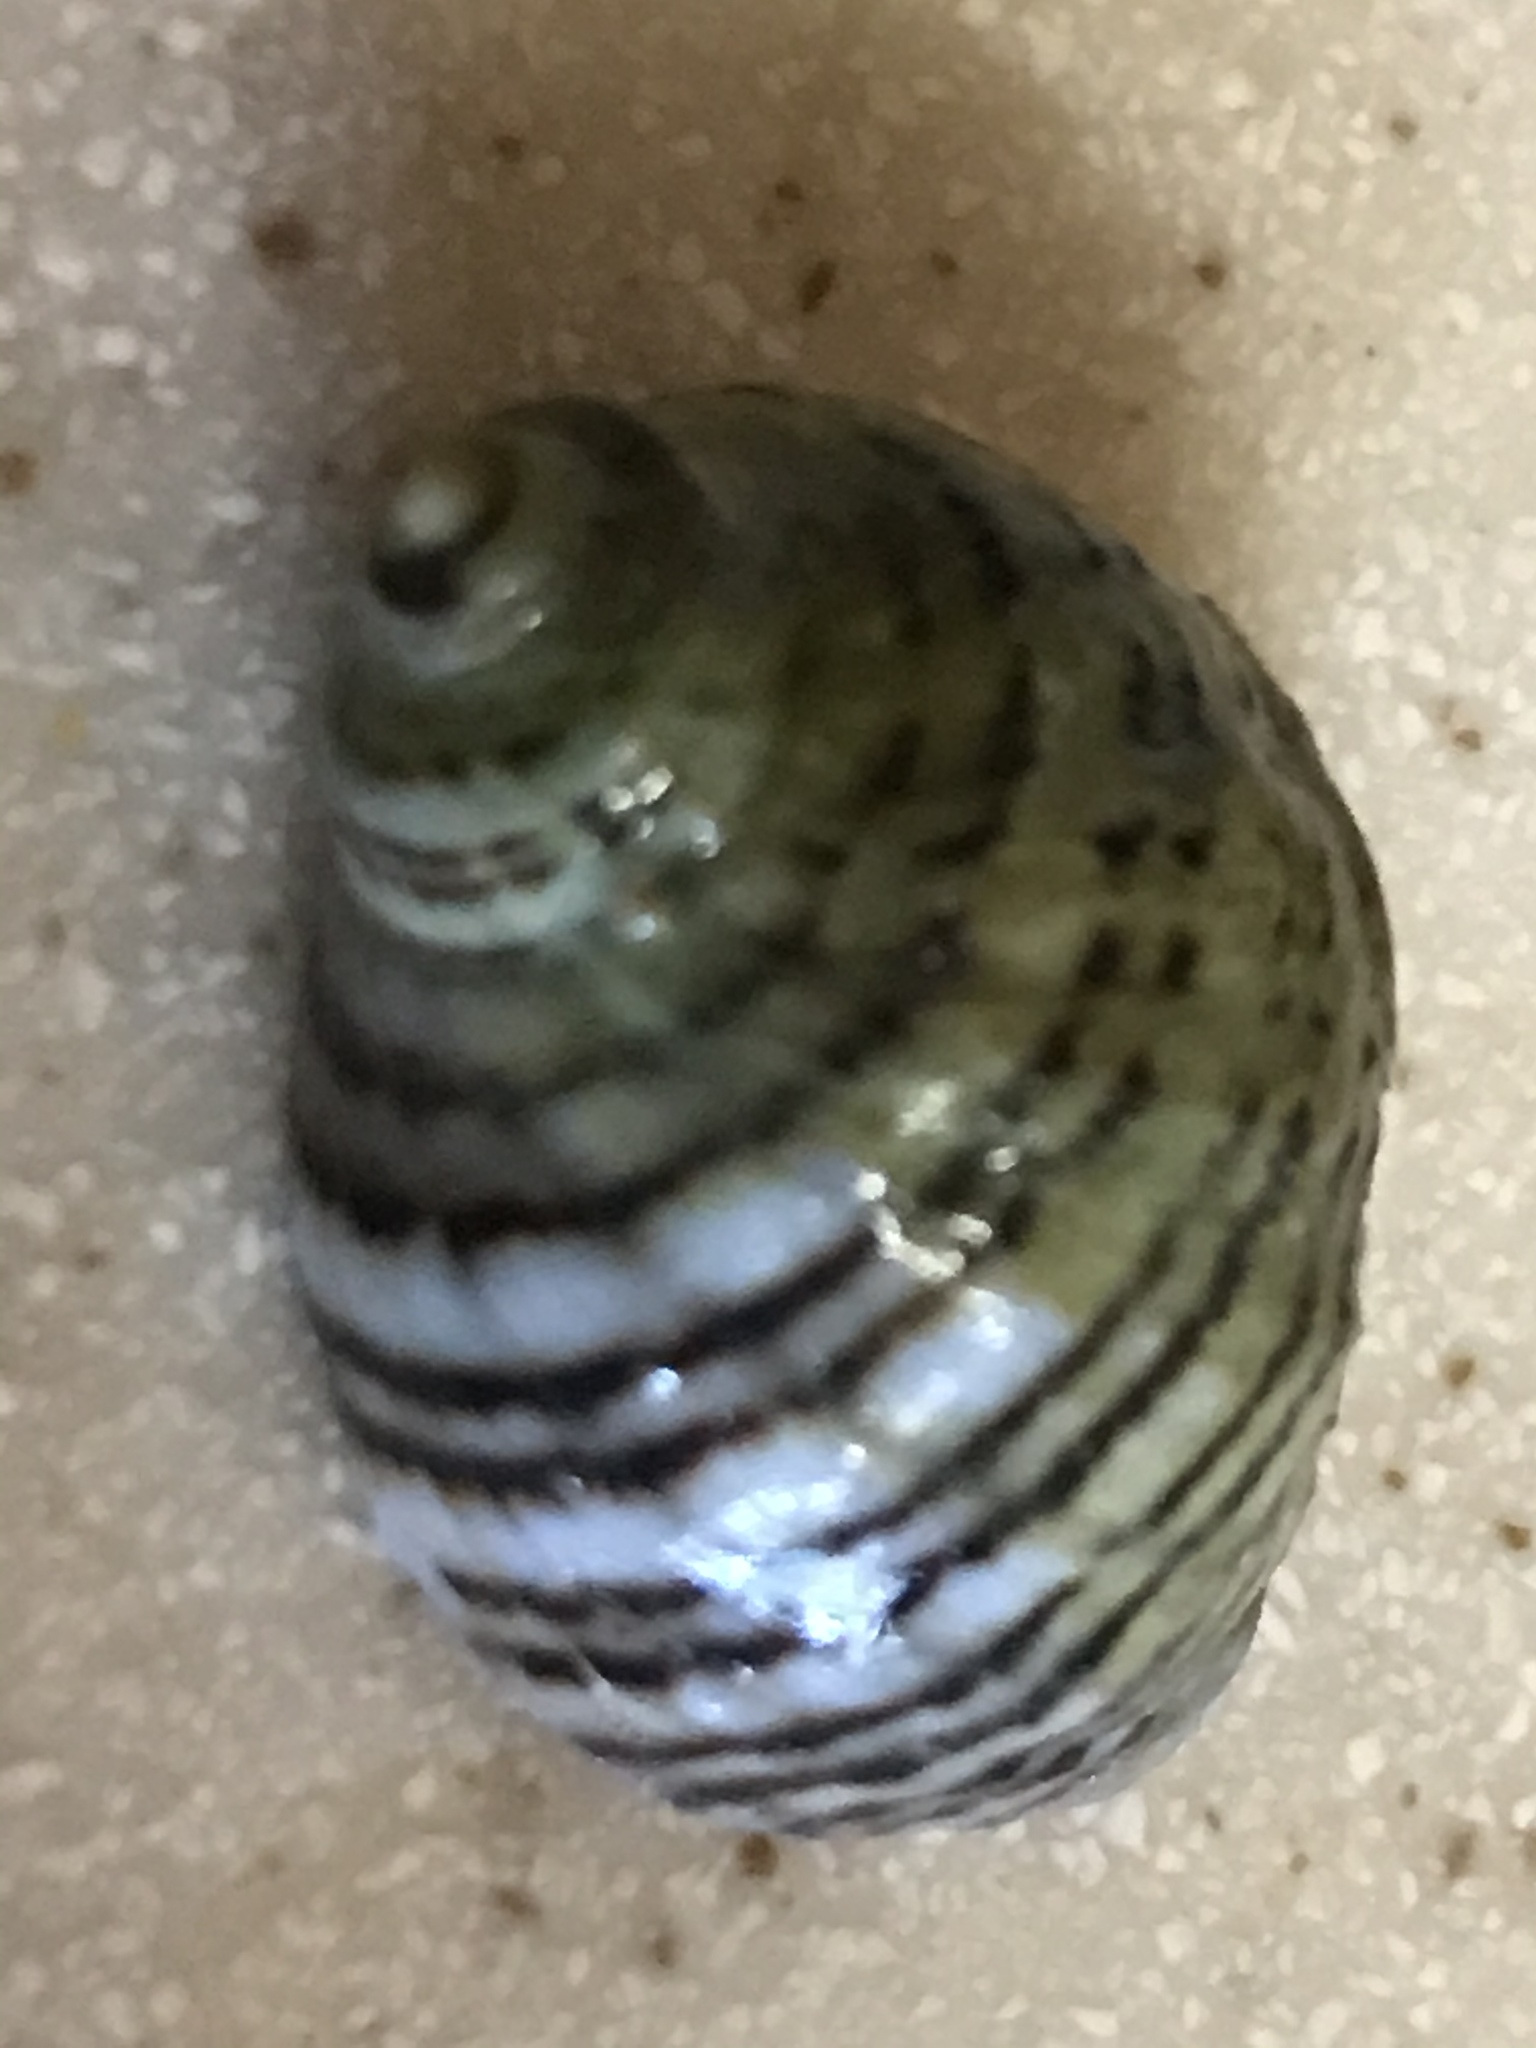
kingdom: Animalia
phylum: Mollusca
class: Gastropoda
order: Neogastropoda
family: Muricidae
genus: Nucella
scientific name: Nucella ostrina
